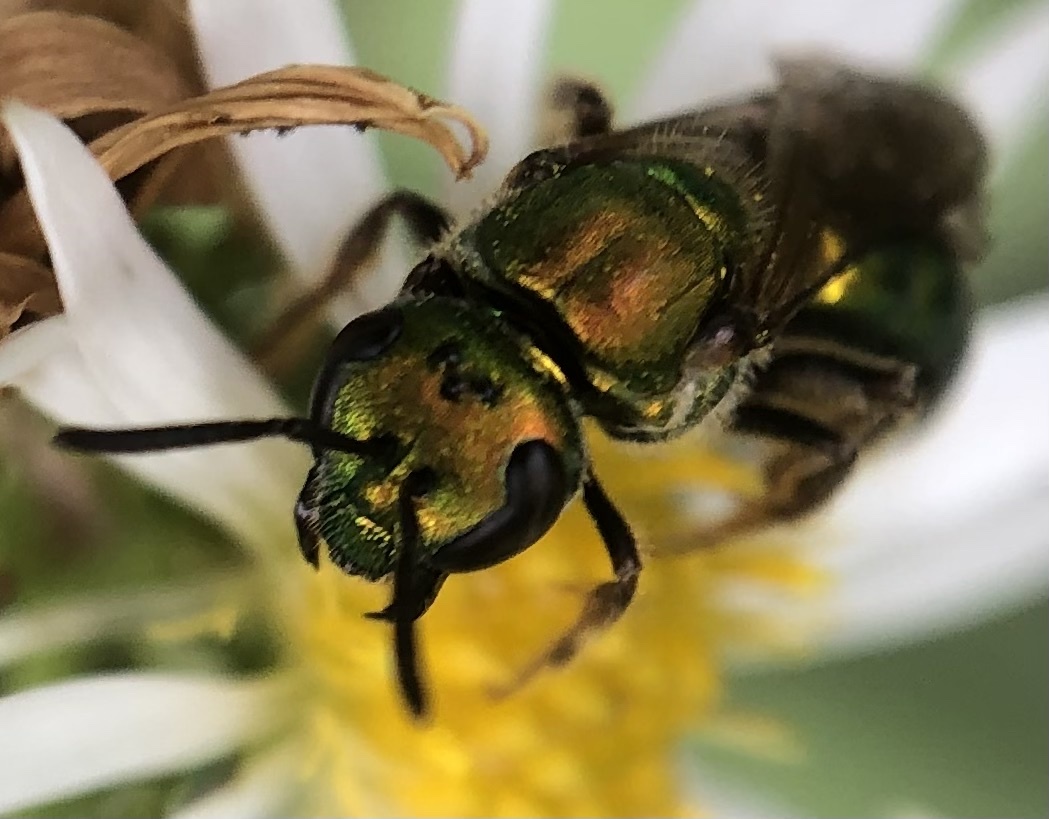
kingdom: Animalia
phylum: Arthropoda
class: Insecta
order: Hymenoptera
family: Halictidae
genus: Augochlora
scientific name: Augochlora pura
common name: Pure green sweat bee
